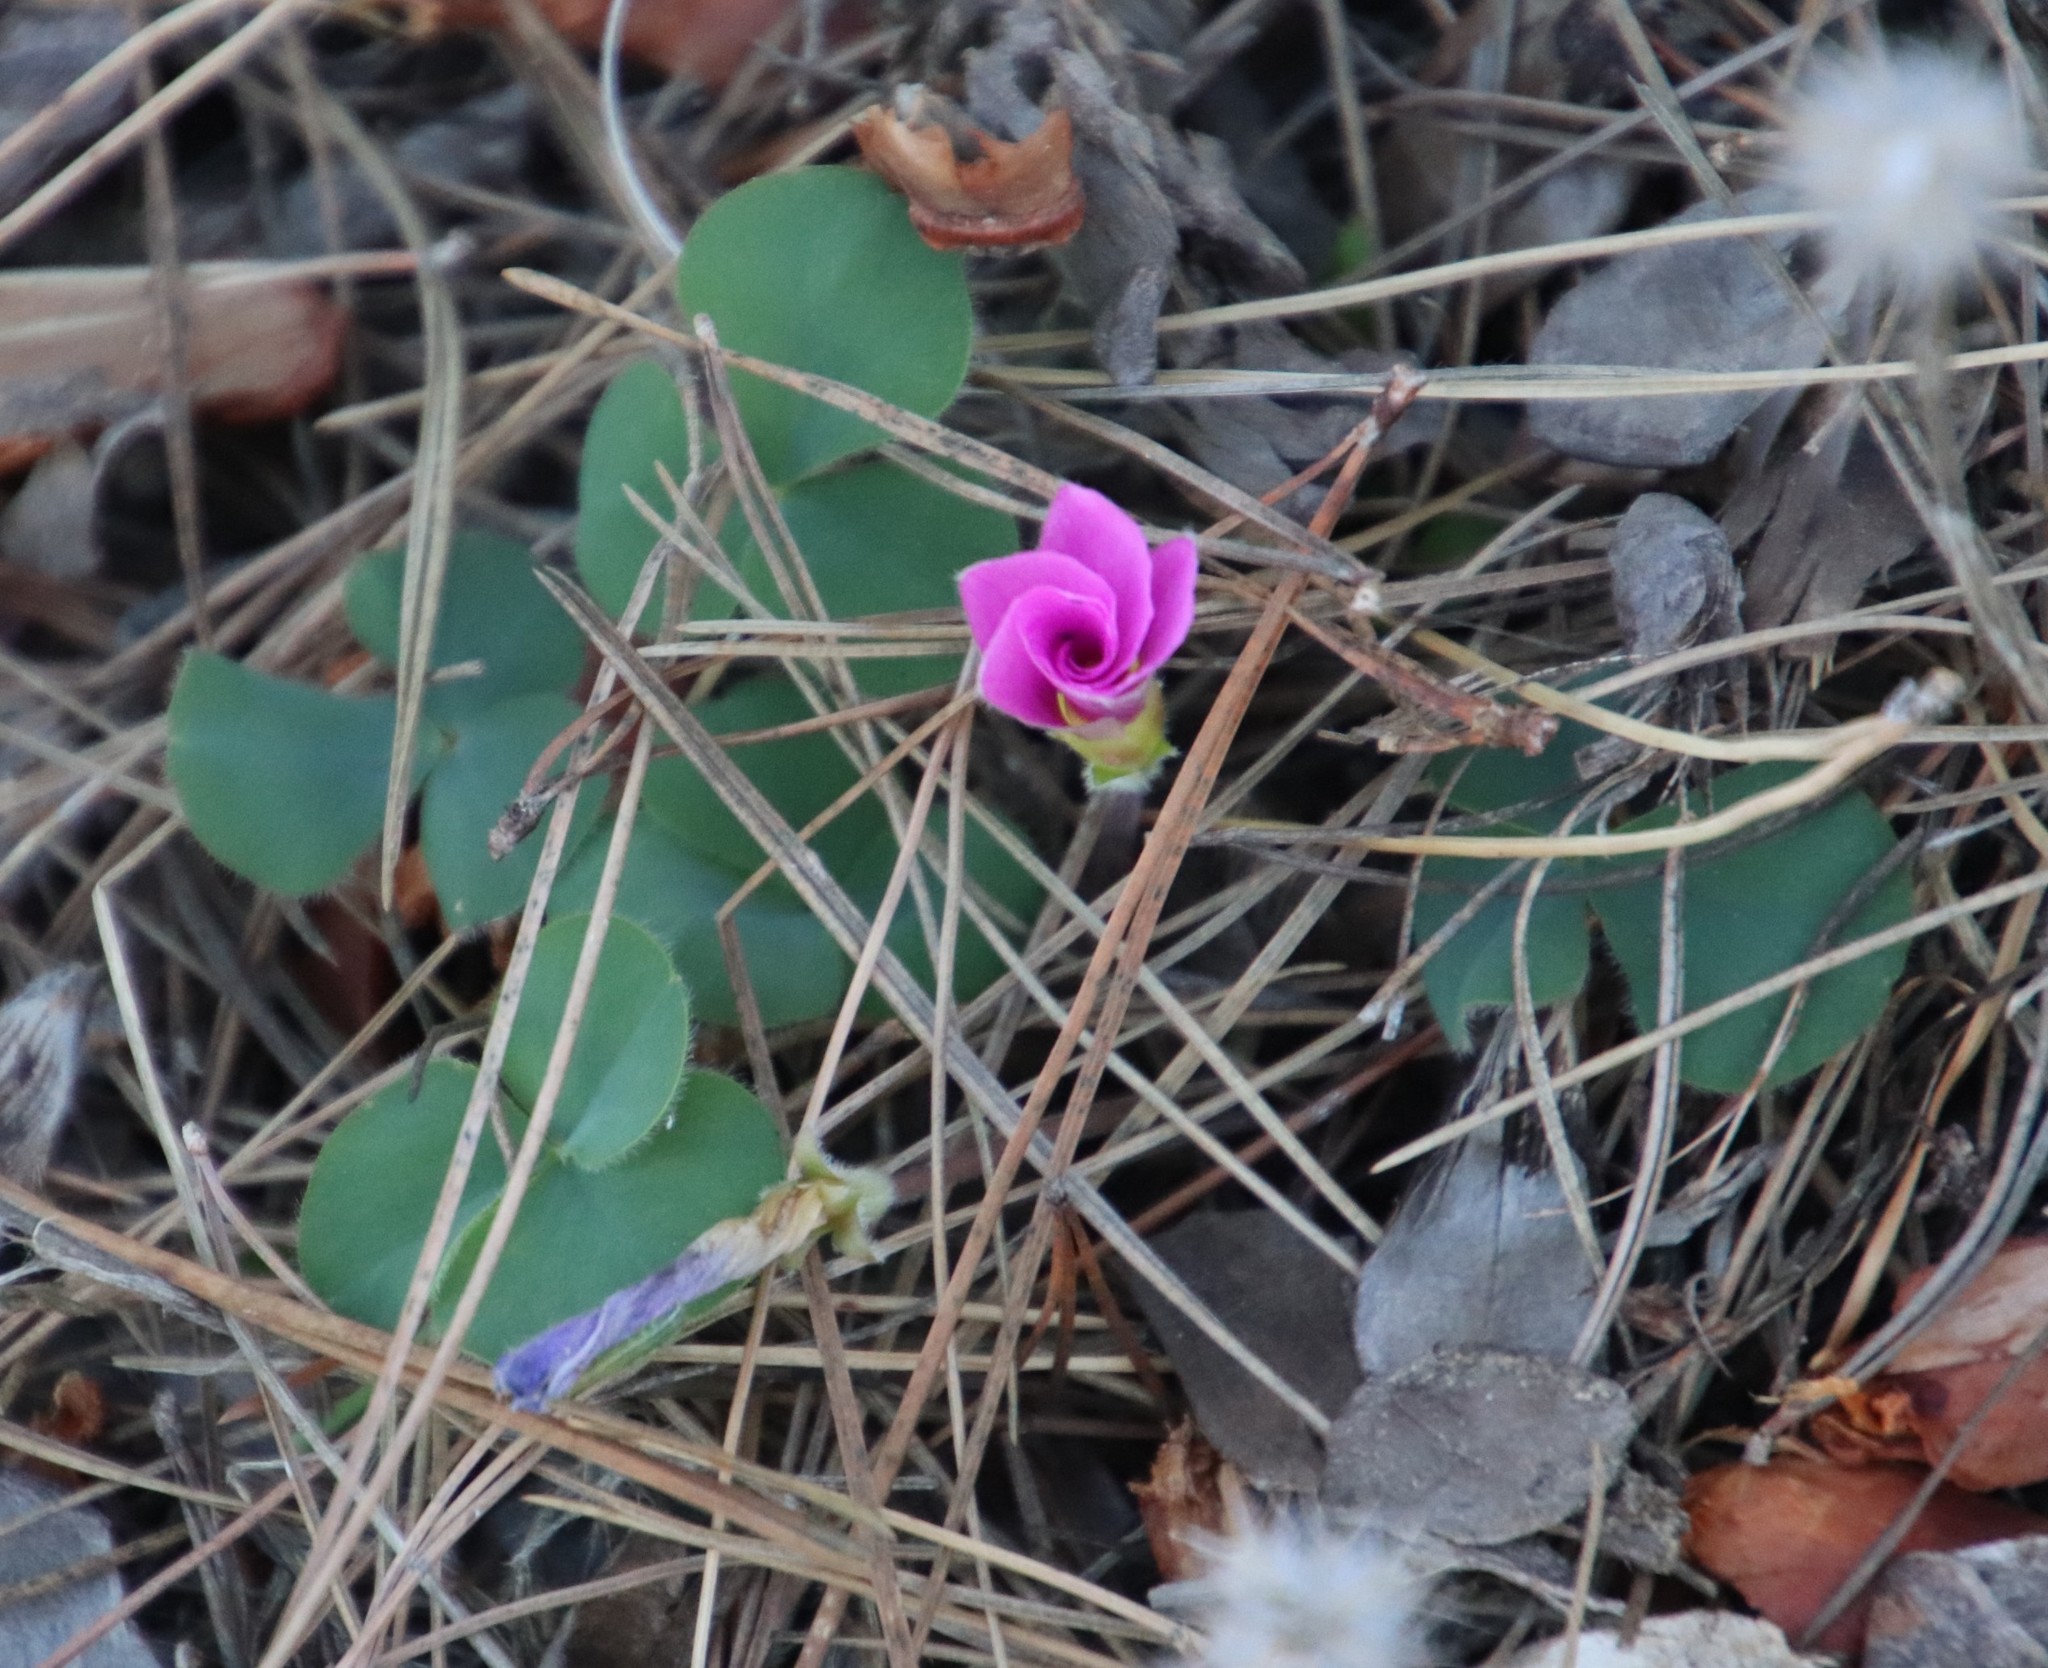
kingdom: Plantae
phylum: Tracheophyta
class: Magnoliopsida
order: Oxalidales
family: Oxalidaceae
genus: Oxalis
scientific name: Oxalis purpurea
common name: Purple woodsorrel
